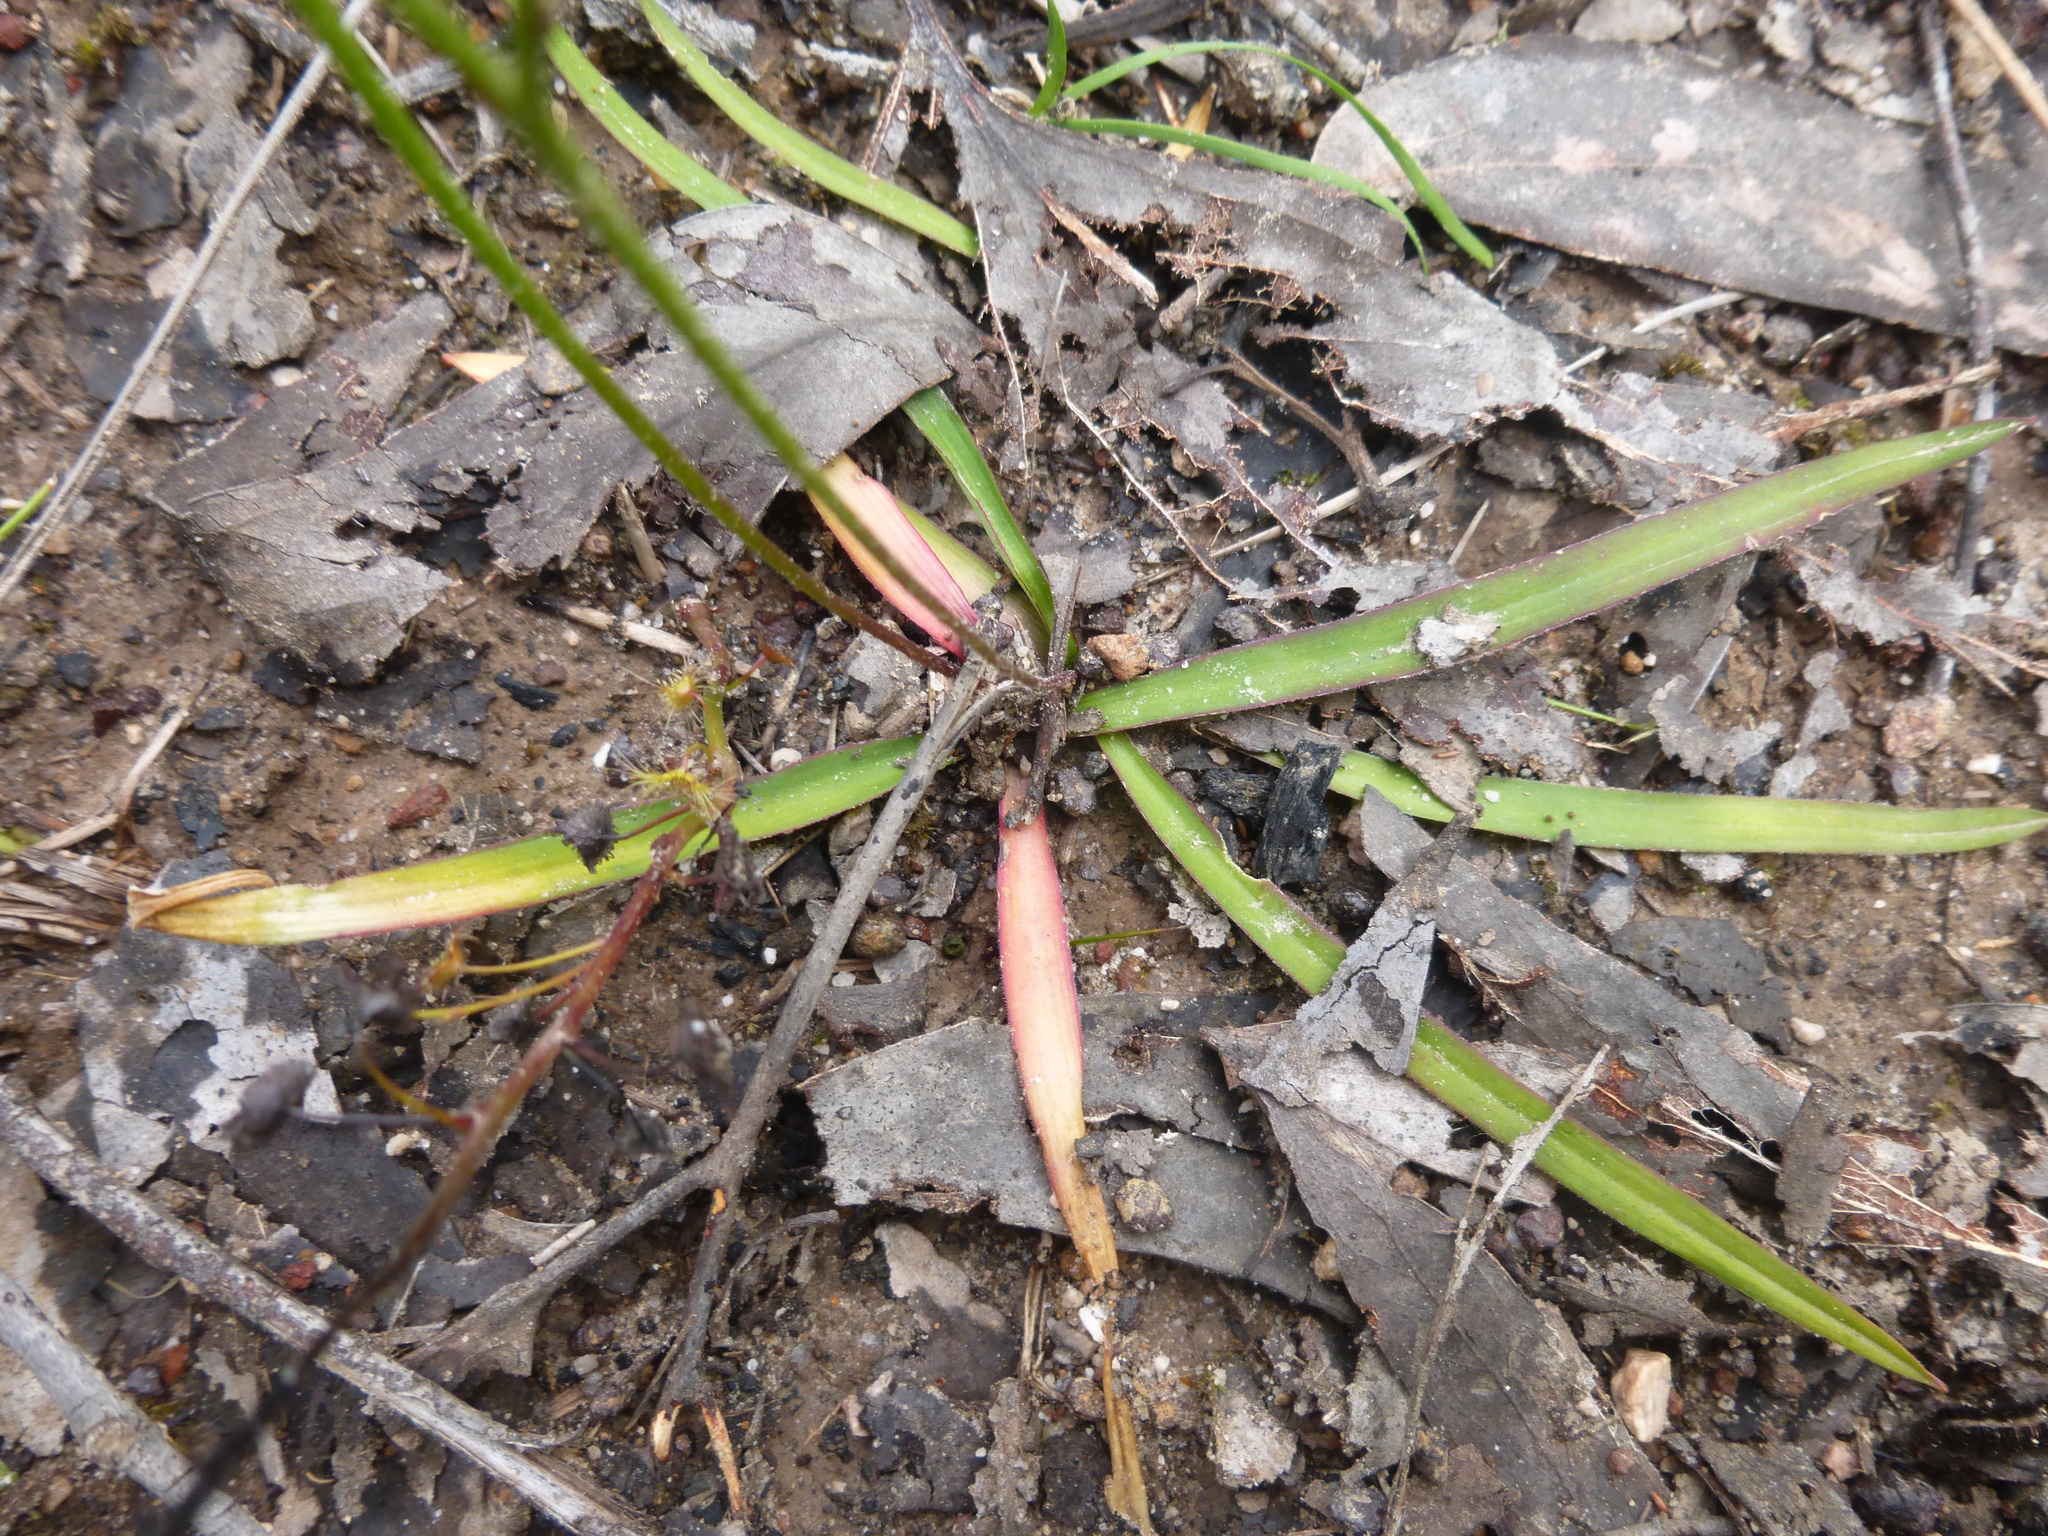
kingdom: Plantae
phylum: Tracheophyta
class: Liliopsida
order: Asparagales
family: Asphodelaceae
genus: Chamaescilla
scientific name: Chamaescilla corymbosa
